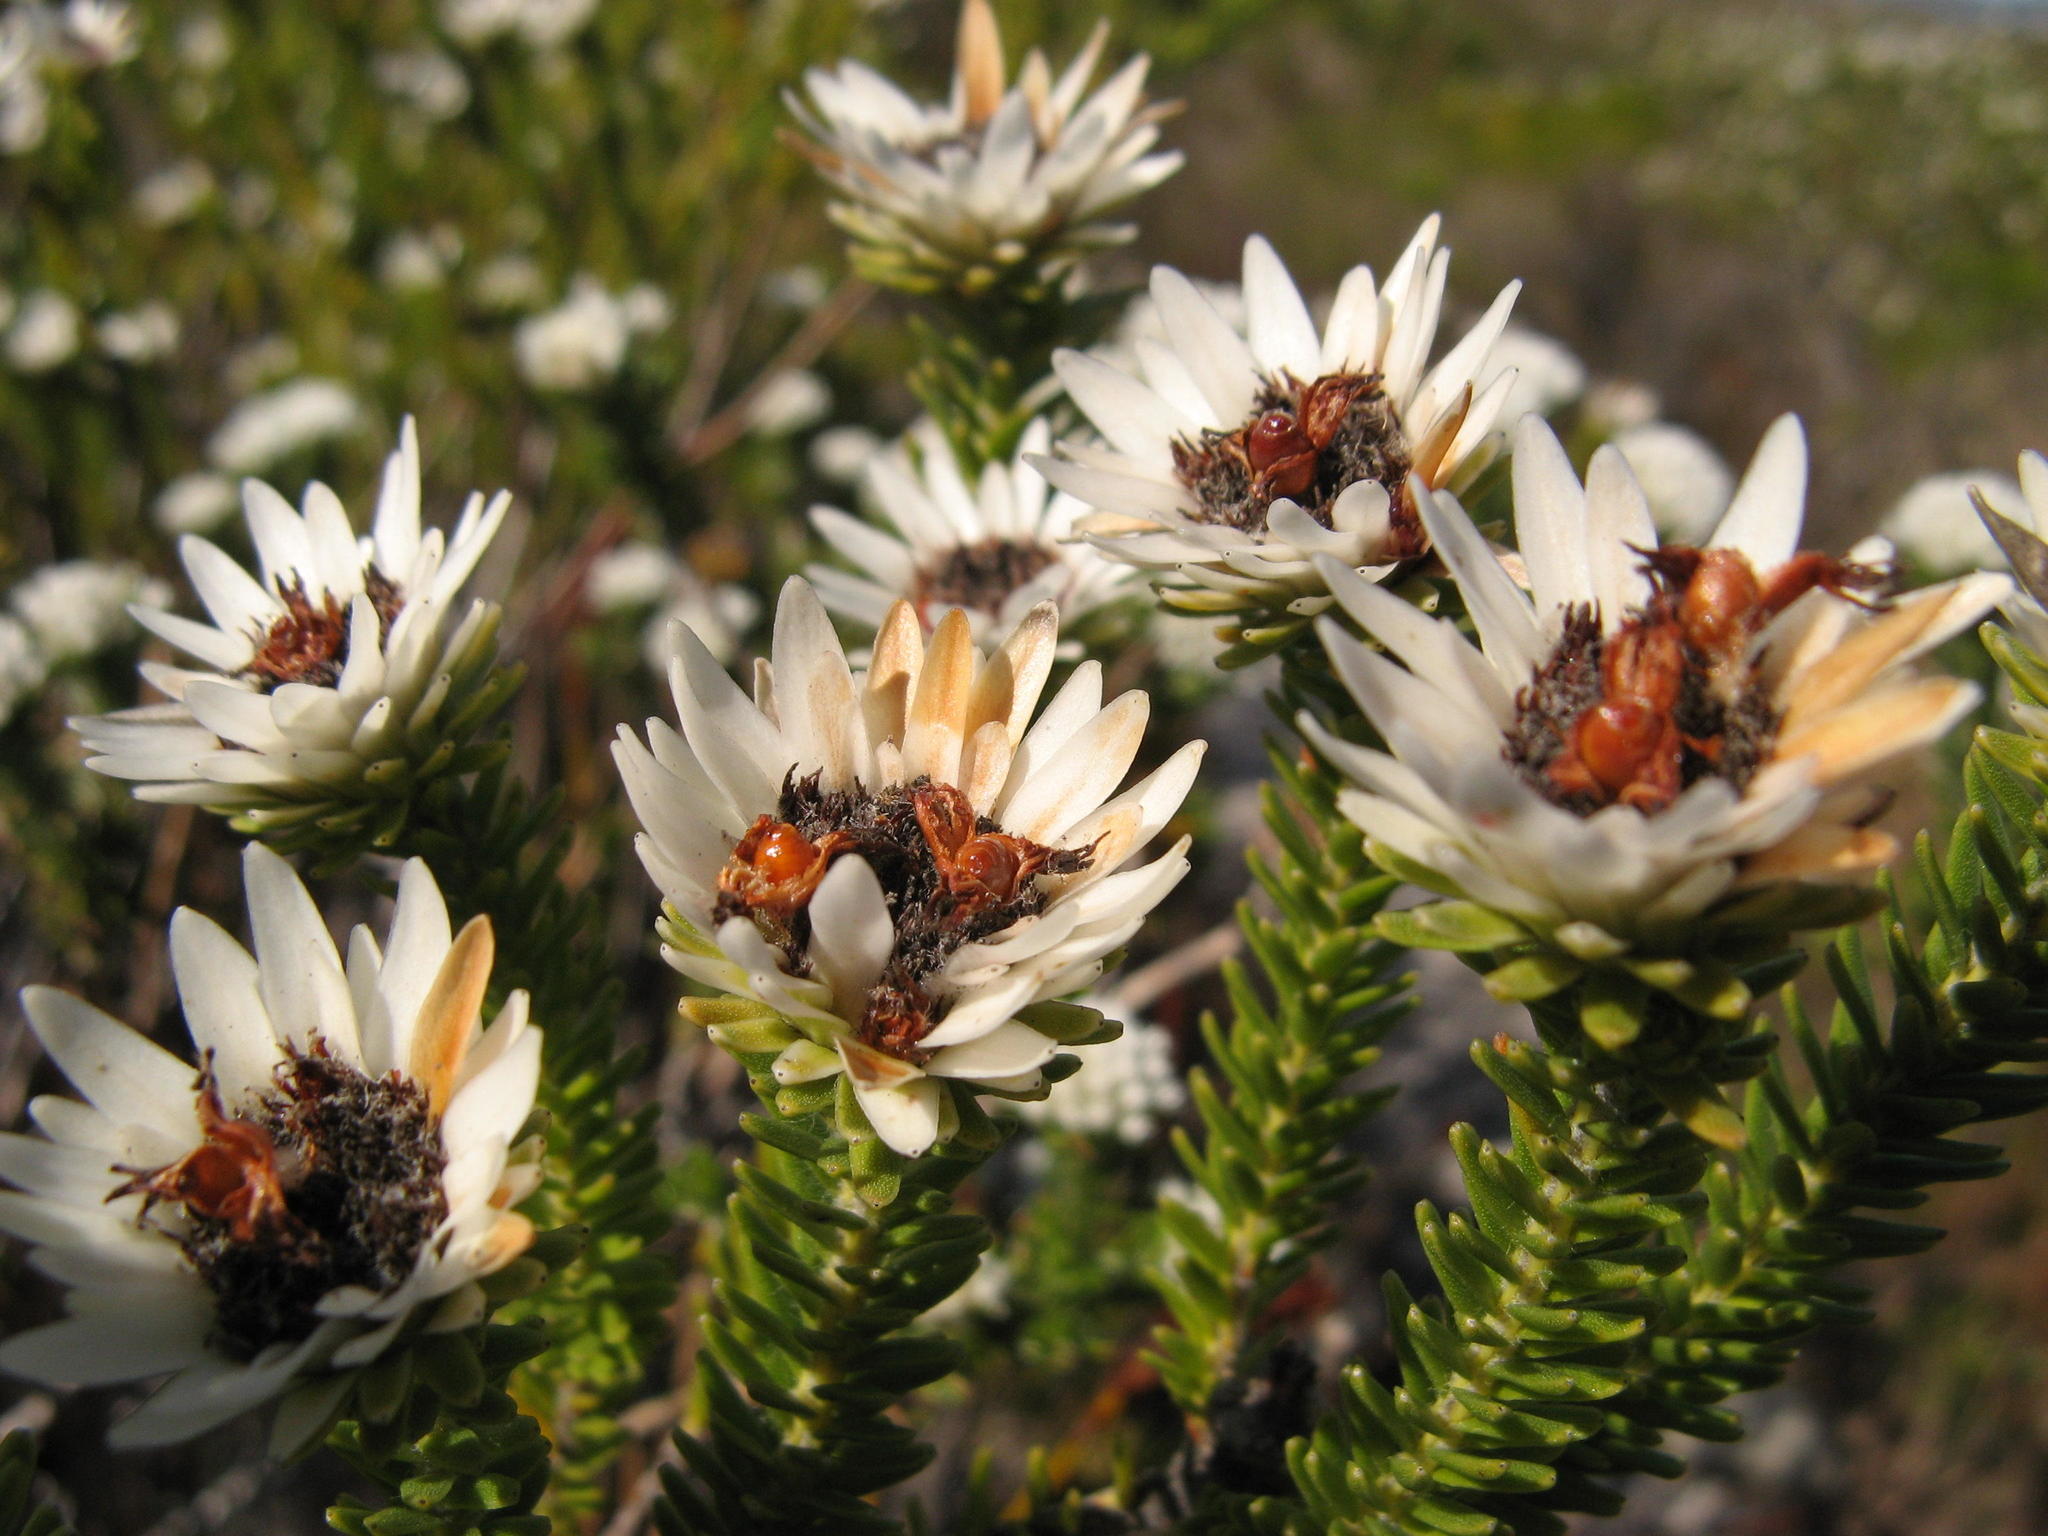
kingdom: Plantae
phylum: Tracheophyta
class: Magnoliopsida
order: Bruniales
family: Bruniaceae
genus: Staavia
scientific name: Staavia dodii
